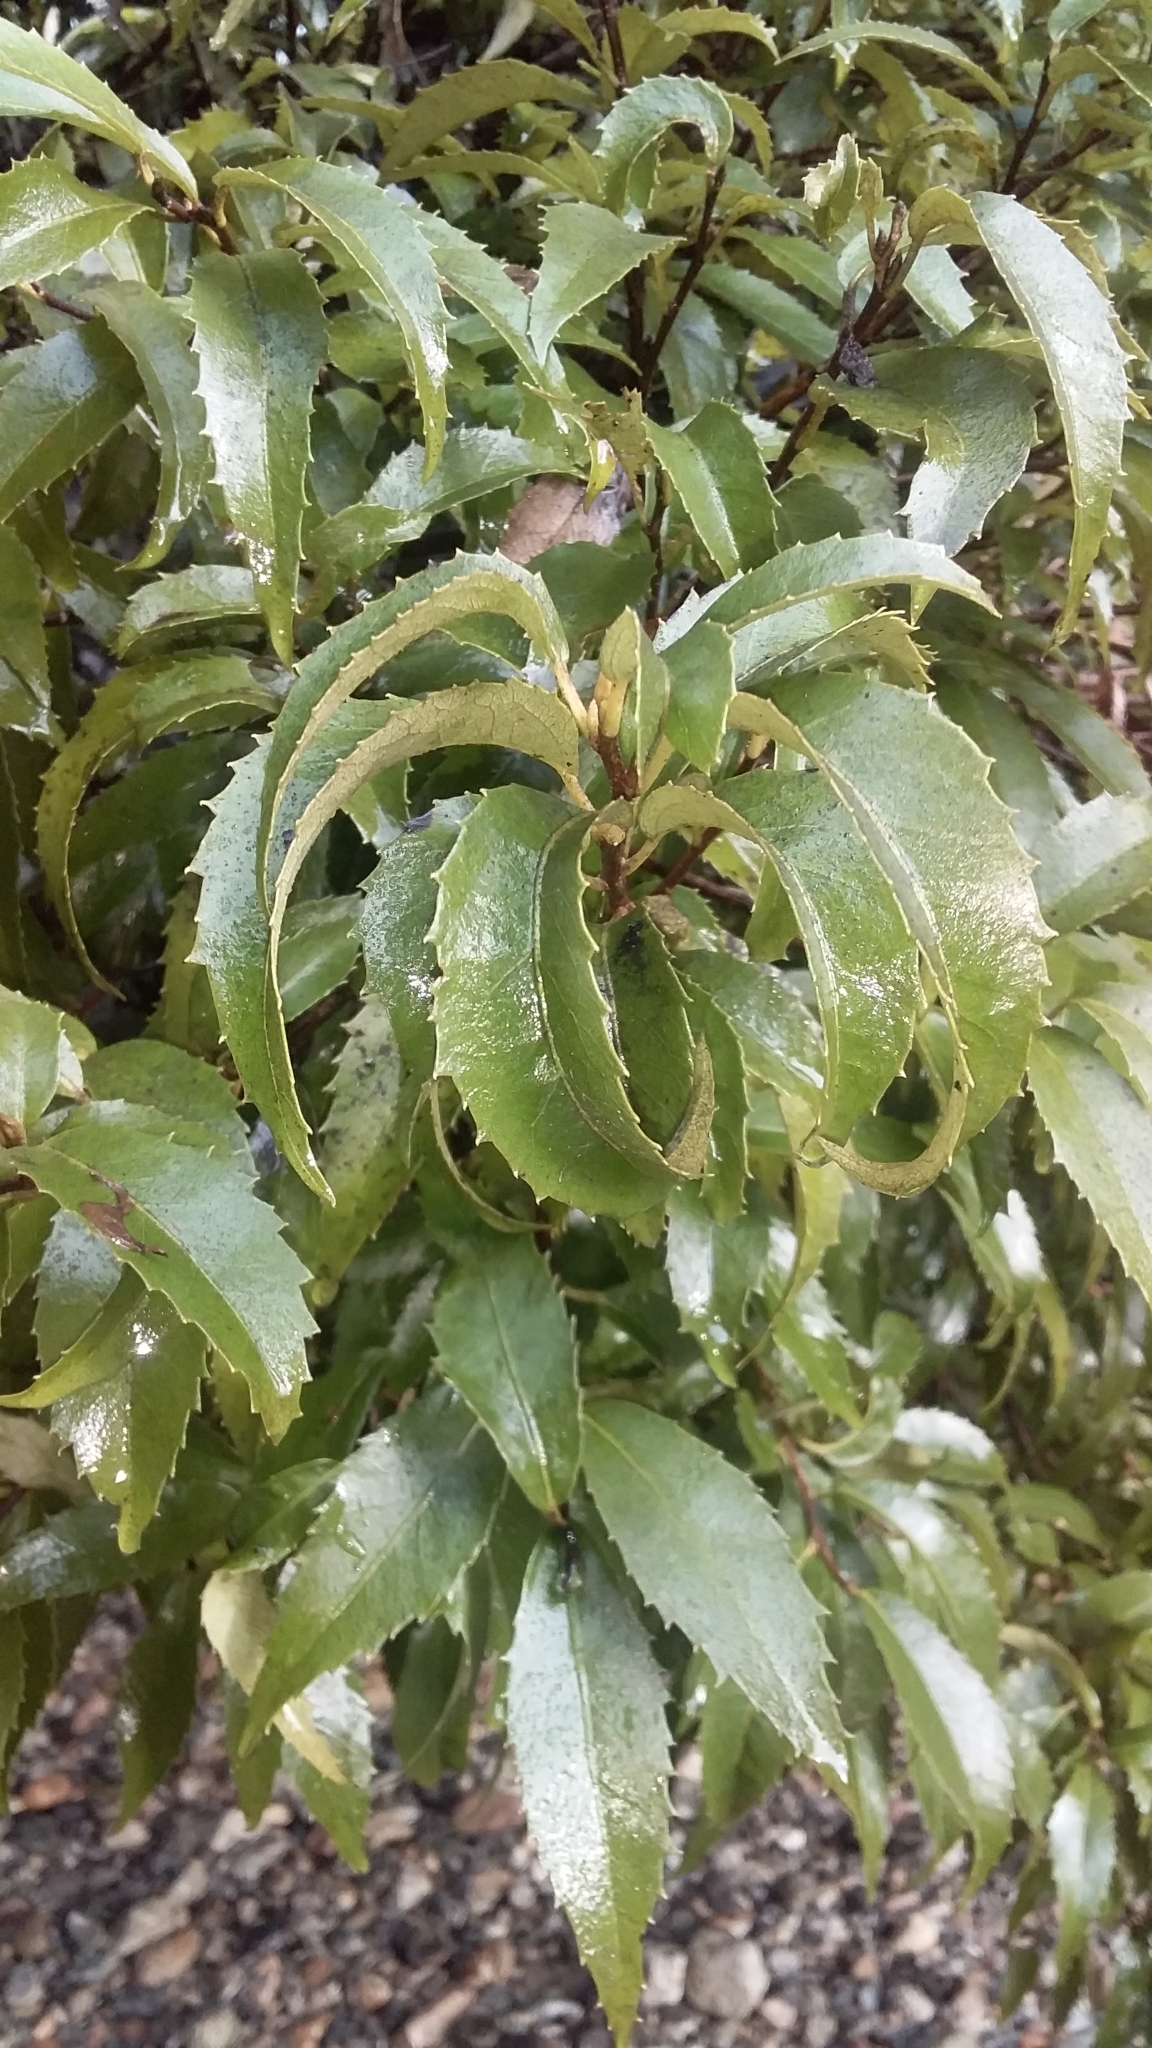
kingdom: Plantae
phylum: Tracheophyta
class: Magnoliopsida
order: Malvales
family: Malvaceae
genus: Hoheria
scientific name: Hoheria sexstylosa
